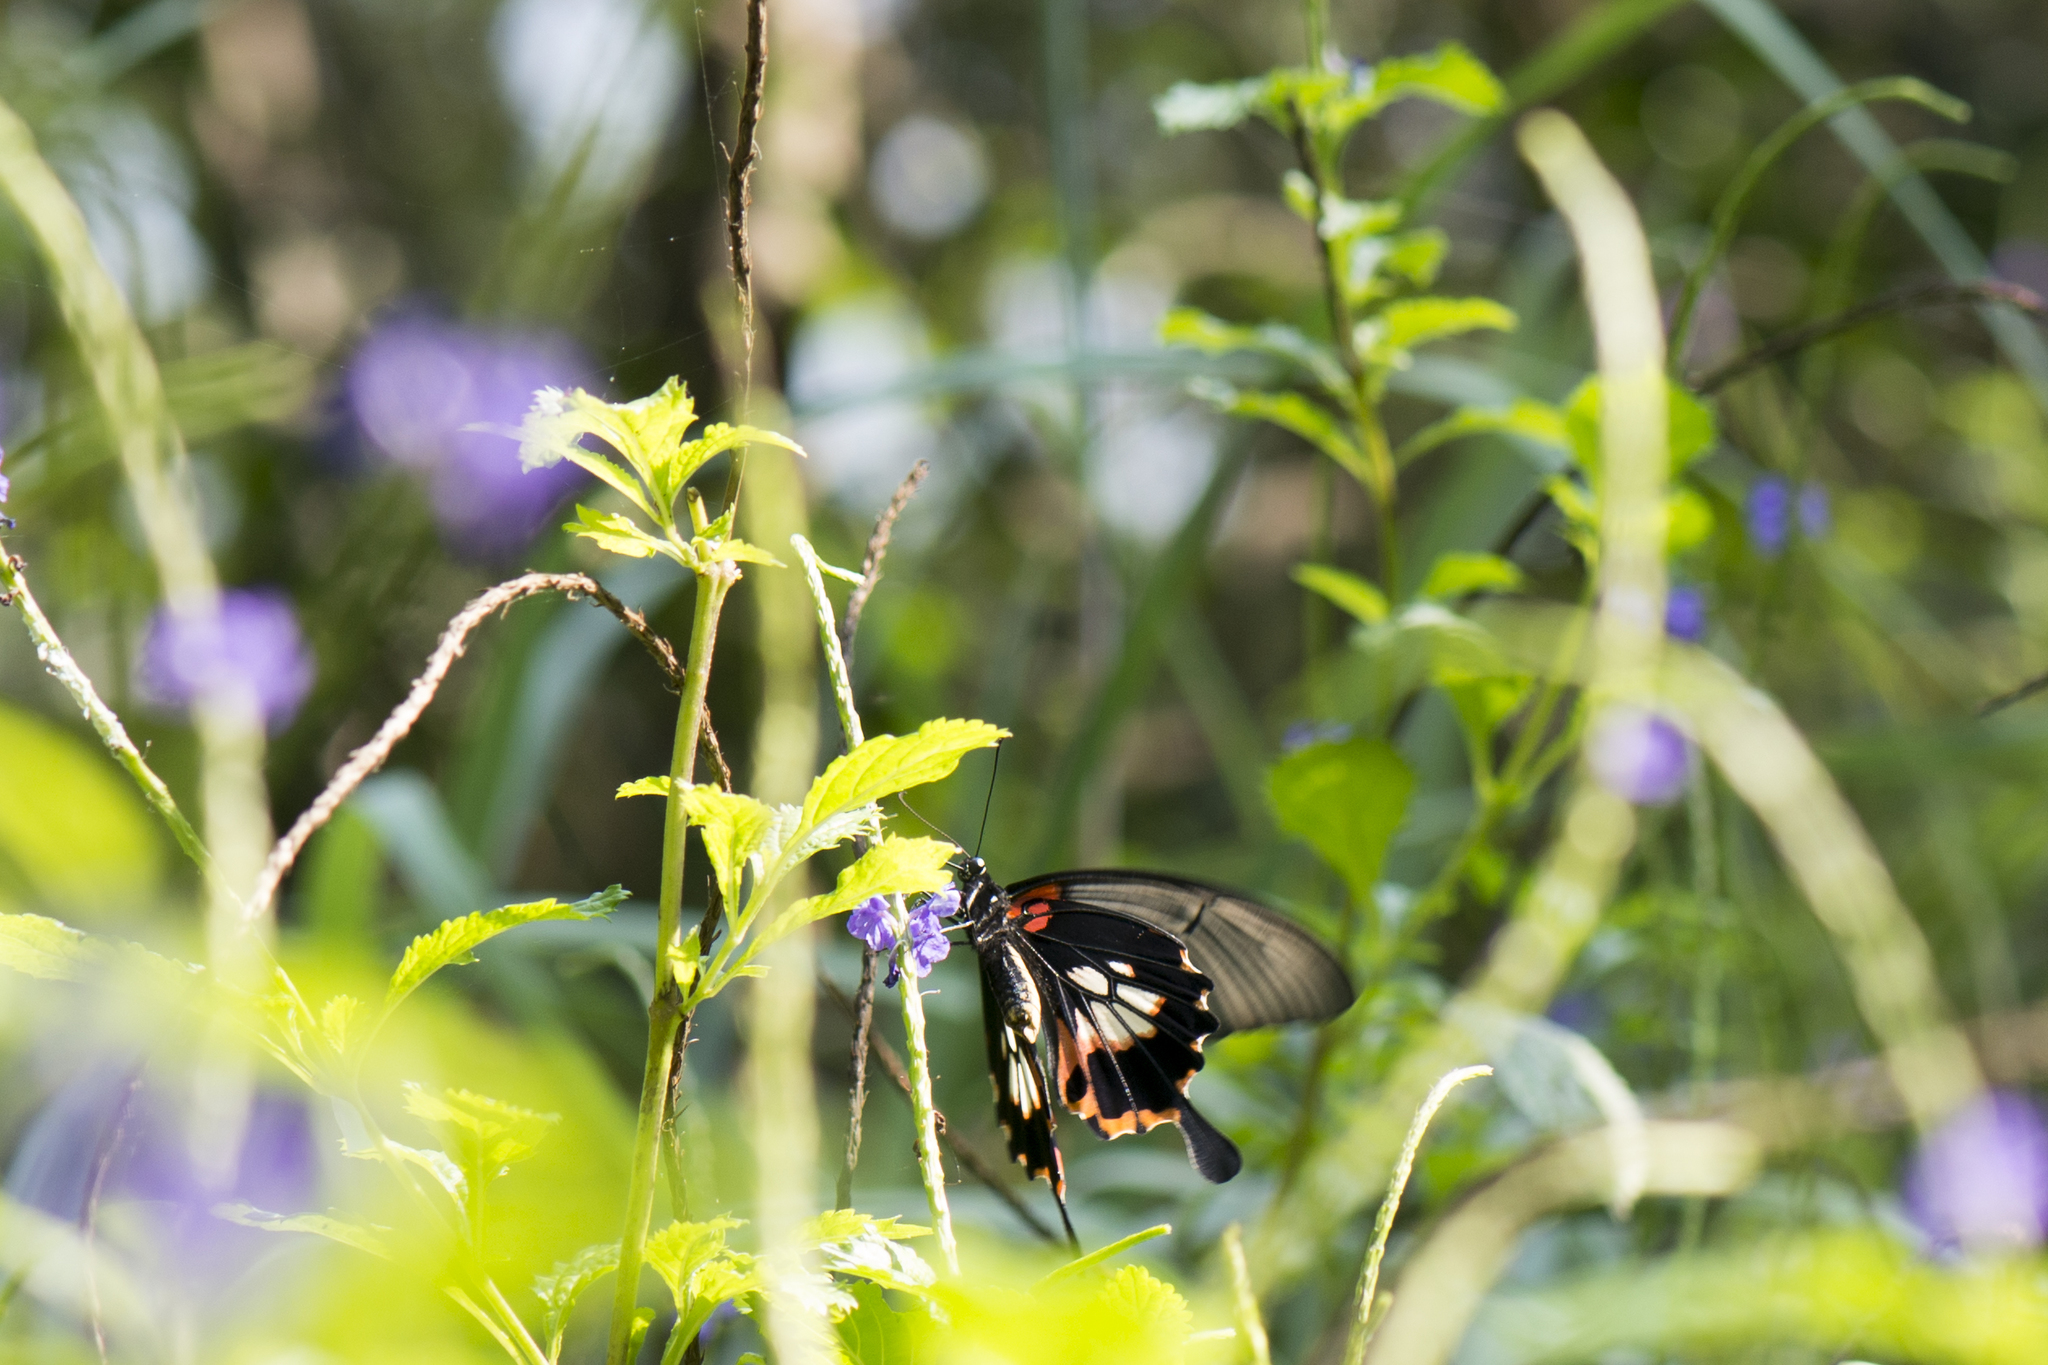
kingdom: Animalia
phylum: Arthropoda
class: Insecta
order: Lepidoptera
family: Papilionidae
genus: Papilio
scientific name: Papilio memnon
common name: Great mormon
